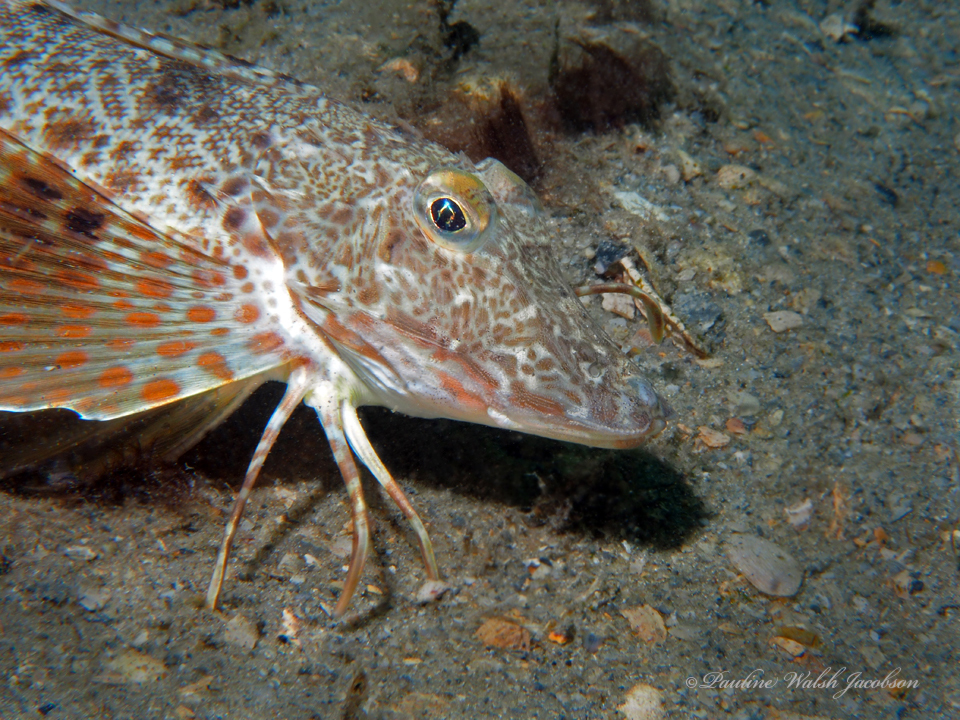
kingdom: Animalia
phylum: Chordata
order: Scorpaeniformes
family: Triglidae
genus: Prionotus
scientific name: Prionotus scitulus
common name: Leopard searobin
